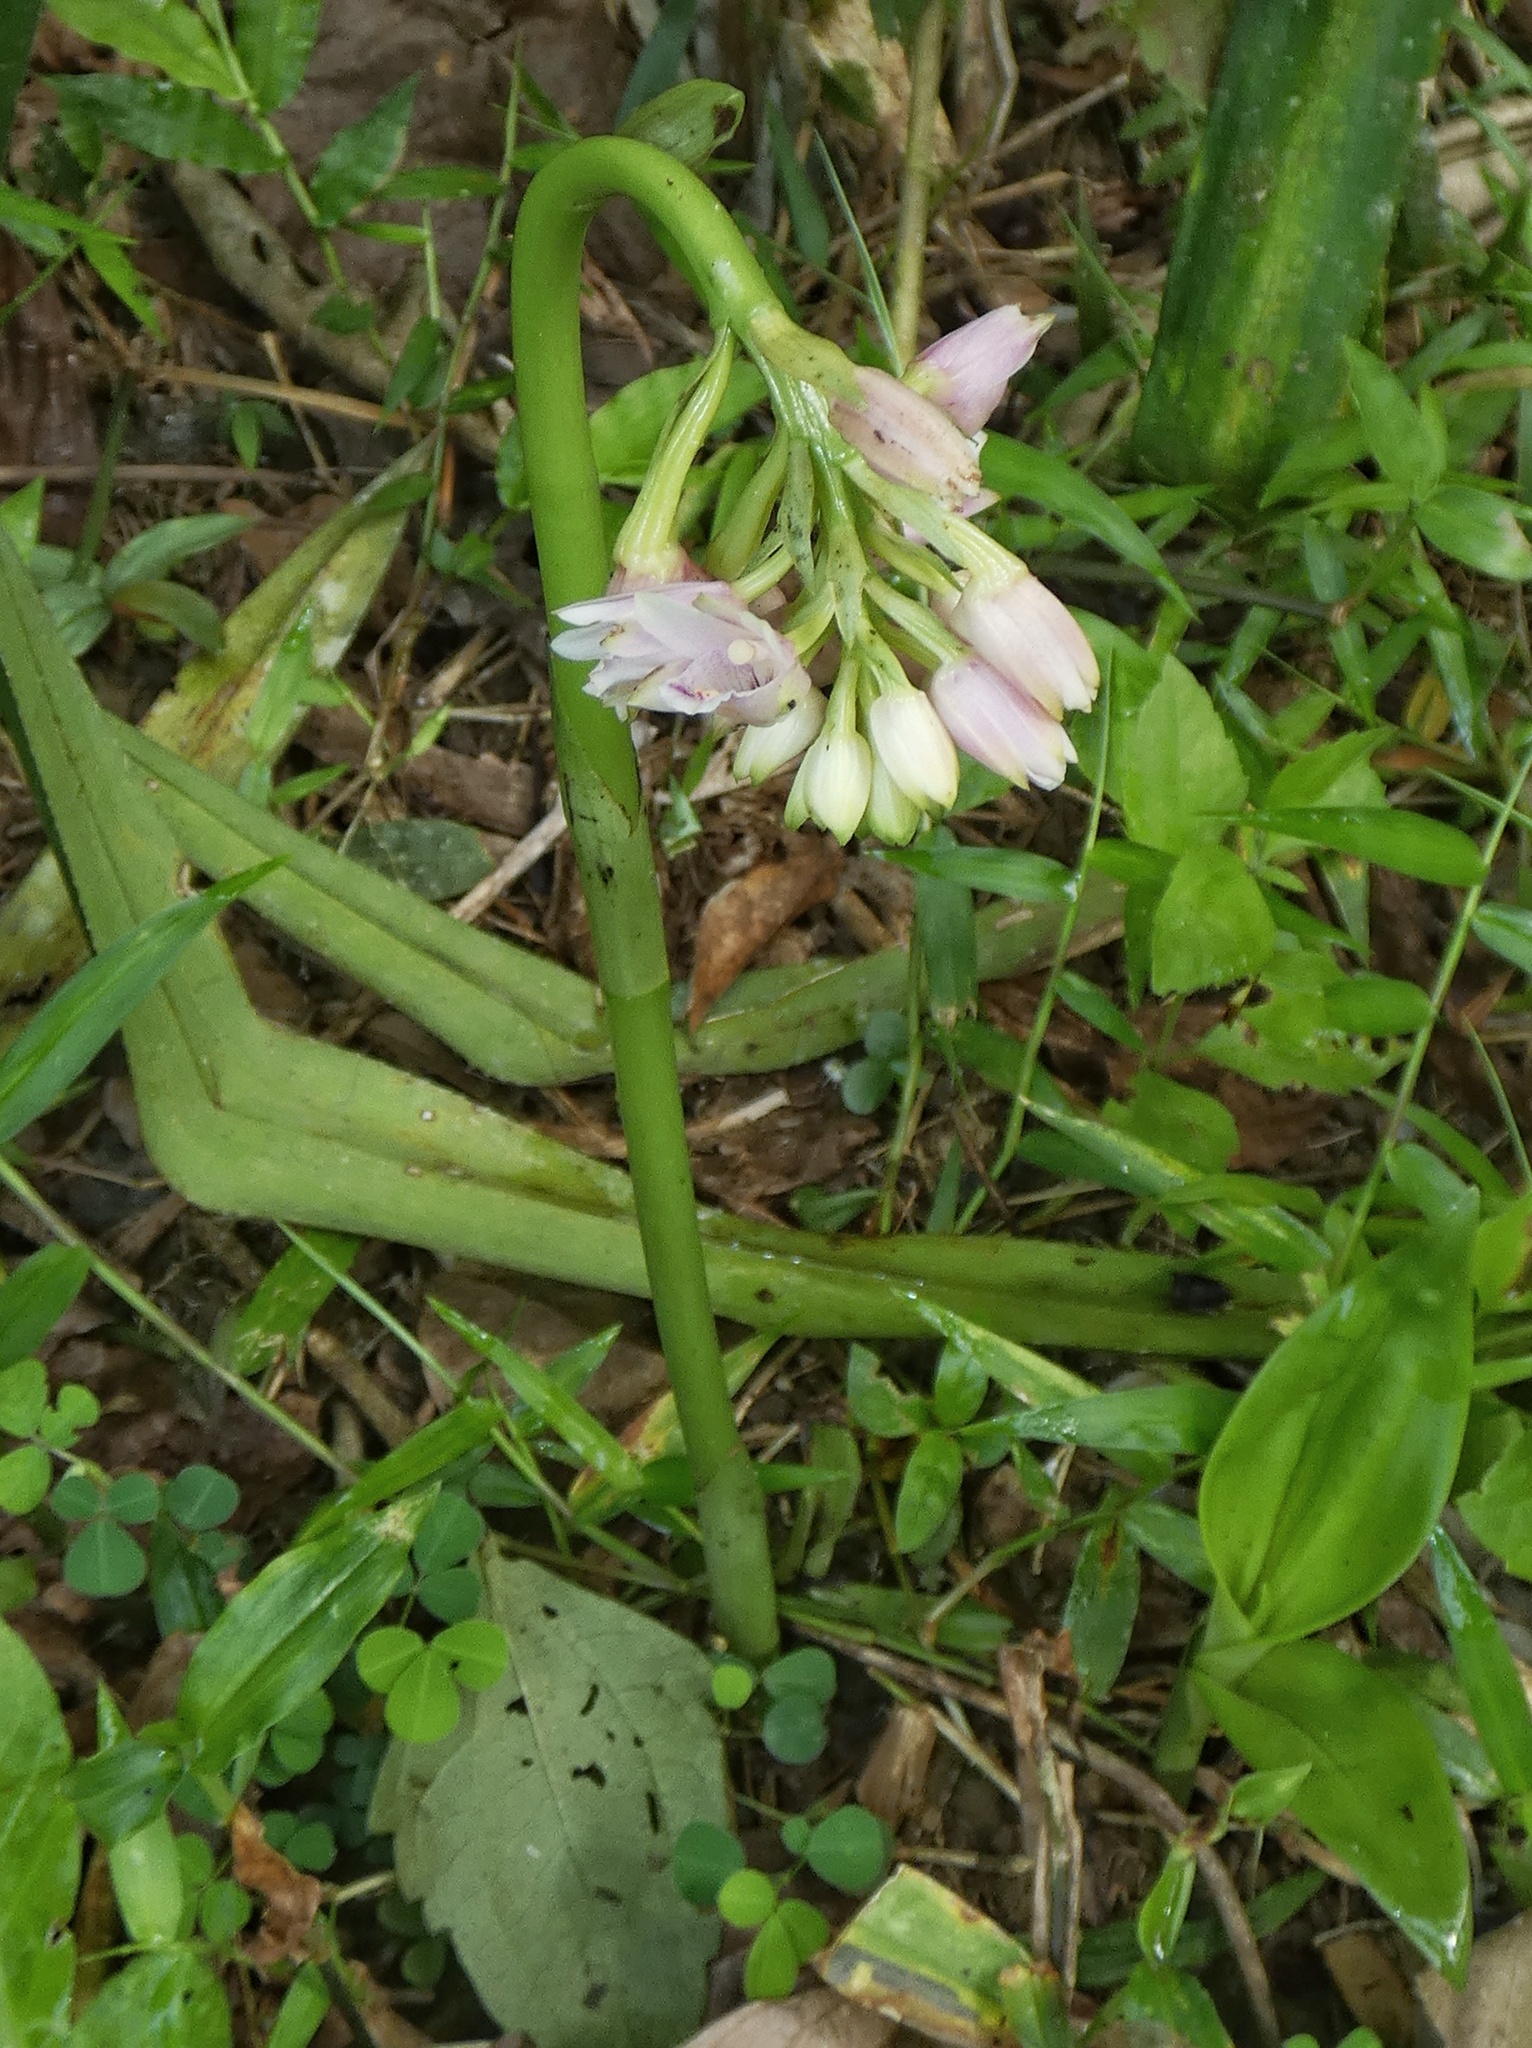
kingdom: Plantae
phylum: Tracheophyta
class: Liliopsida
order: Asparagales
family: Orchidaceae
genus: Eulophia
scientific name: Eulophia cernua
